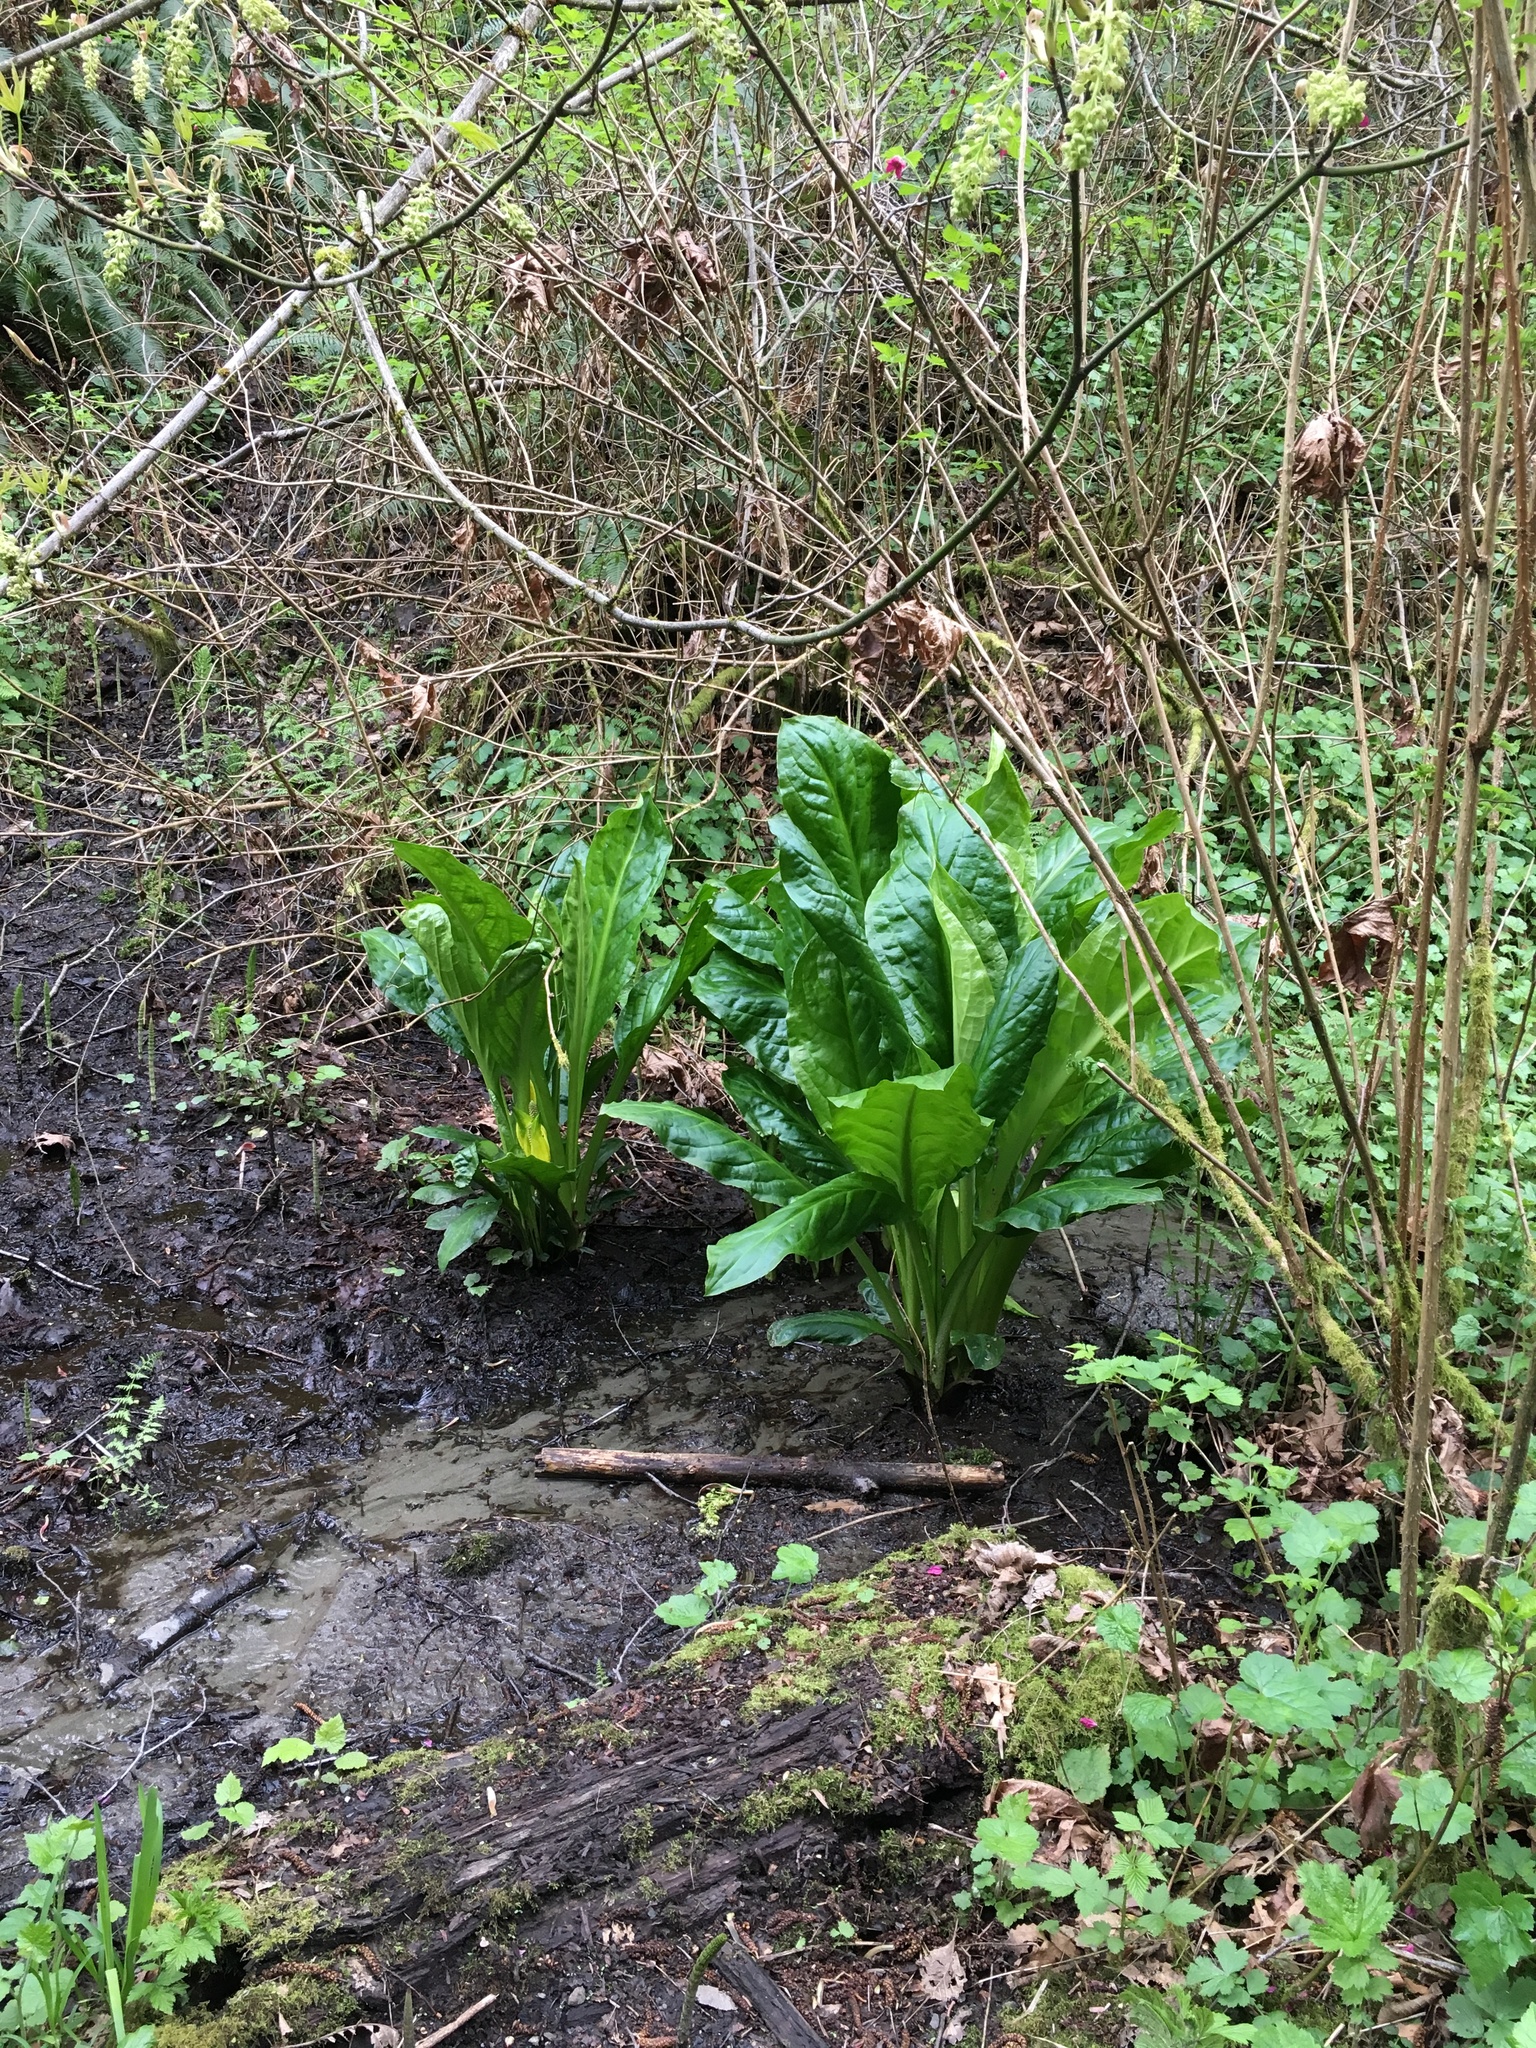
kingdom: Plantae
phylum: Tracheophyta
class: Liliopsida
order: Alismatales
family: Araceae
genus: Lysichiton
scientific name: Lysichiton americanus
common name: American skunk cabbage
